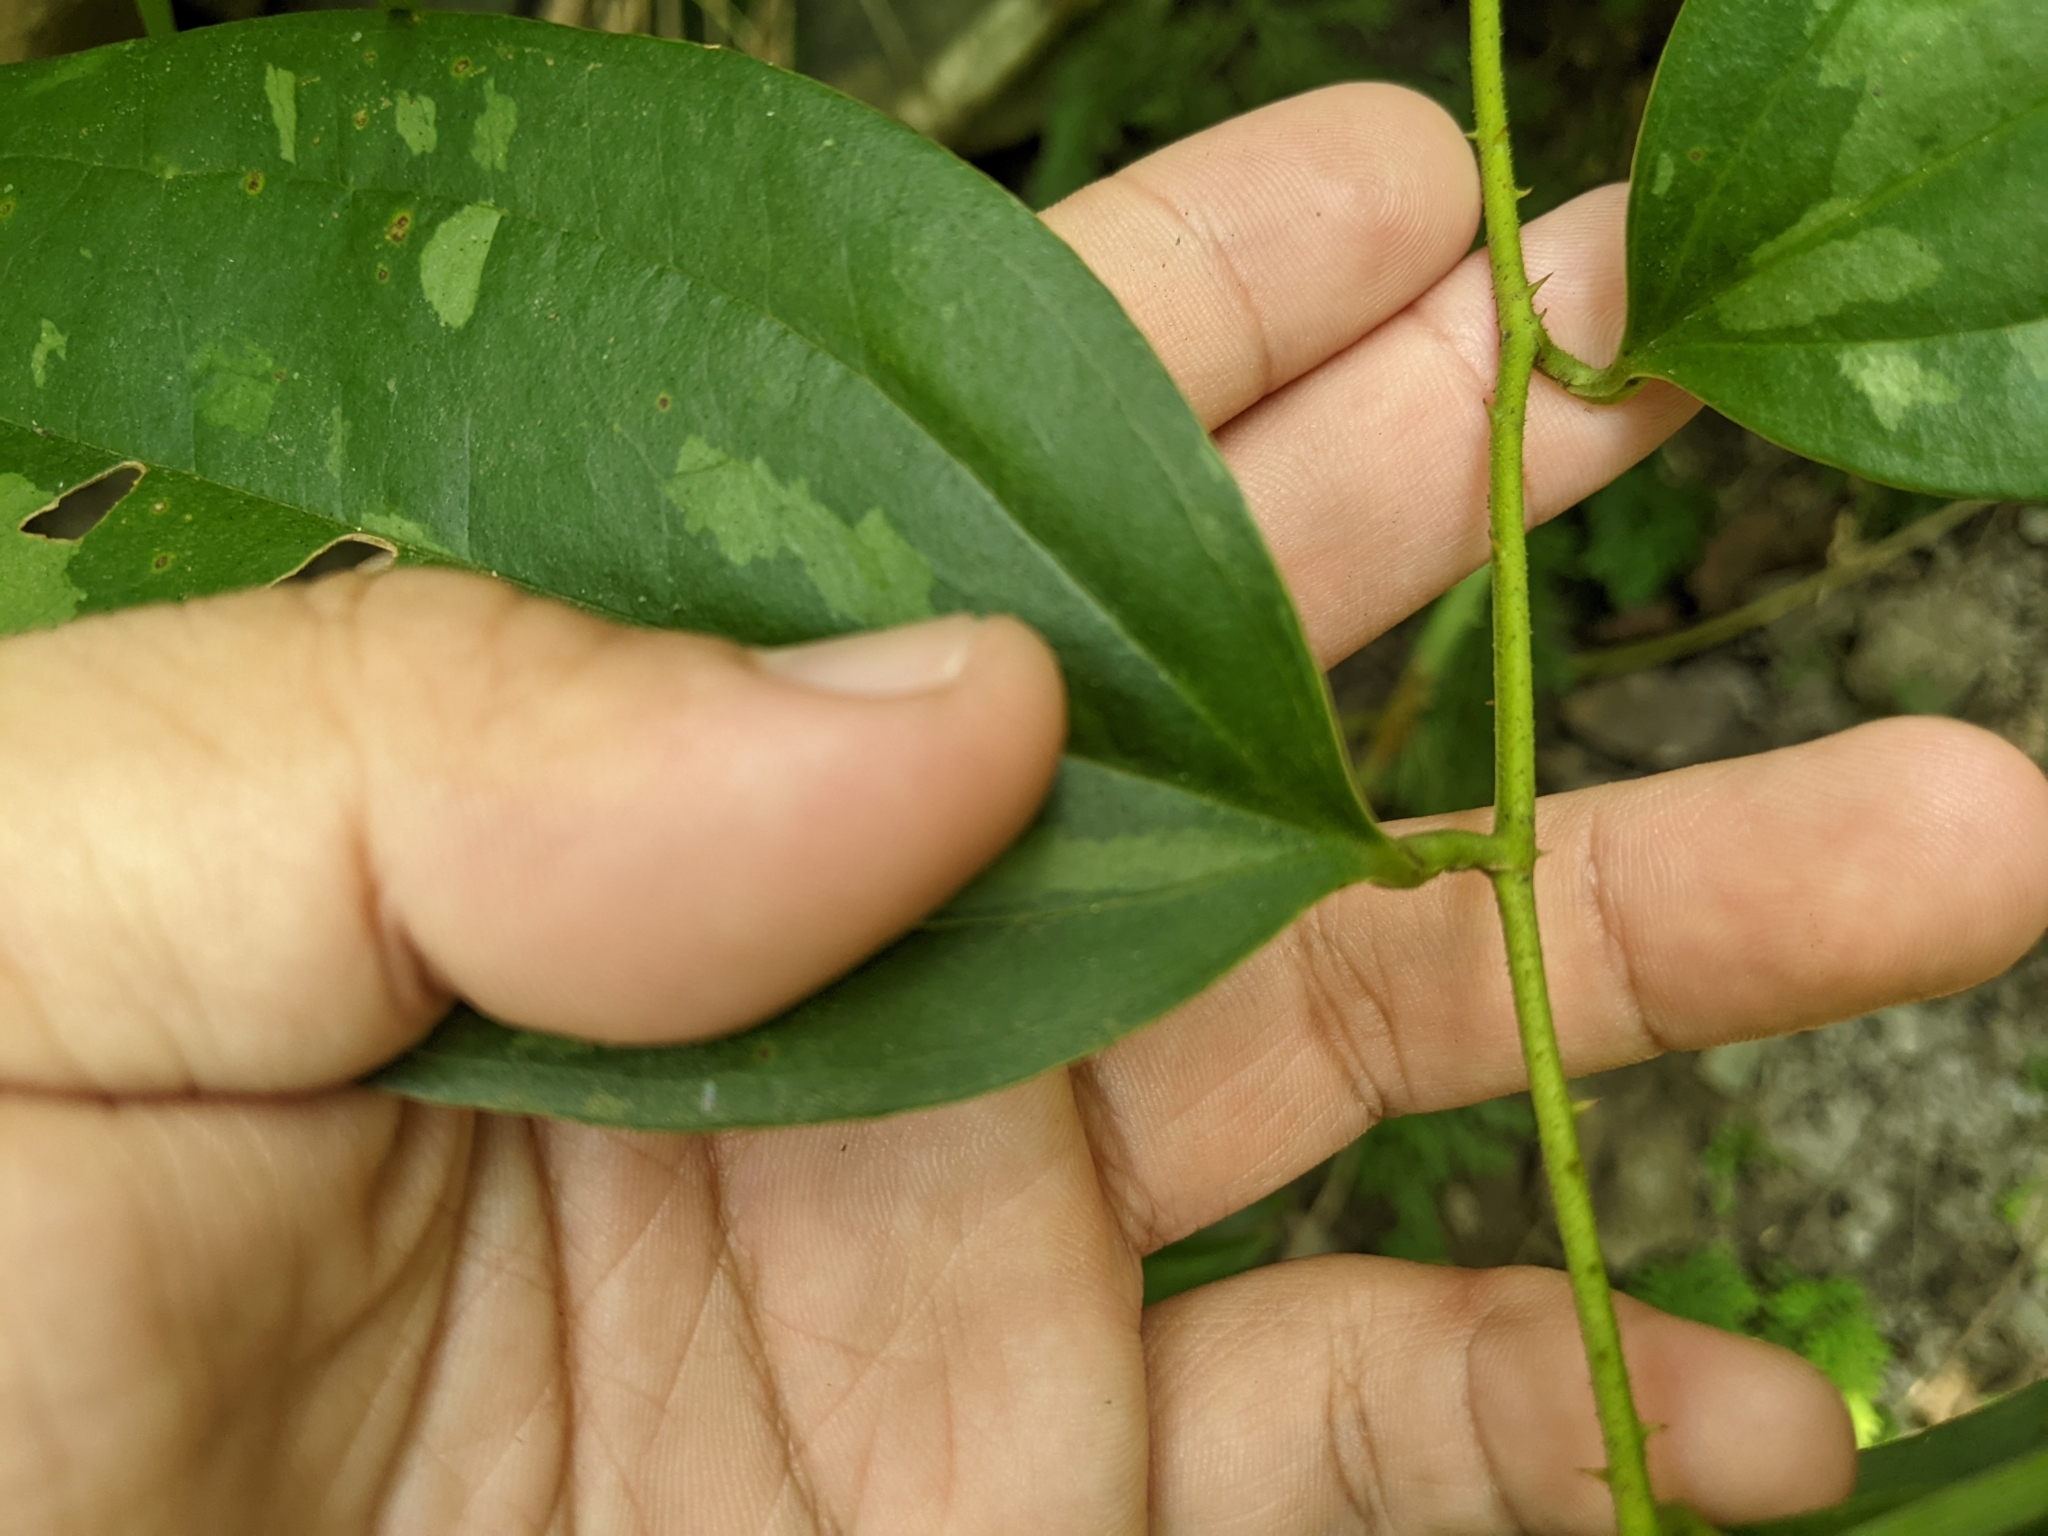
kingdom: Plantae
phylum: Tracheophyta
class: Liliopsida
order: Liliales
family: Smilacaceae
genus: Smilax
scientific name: Smilax aspericaulis
